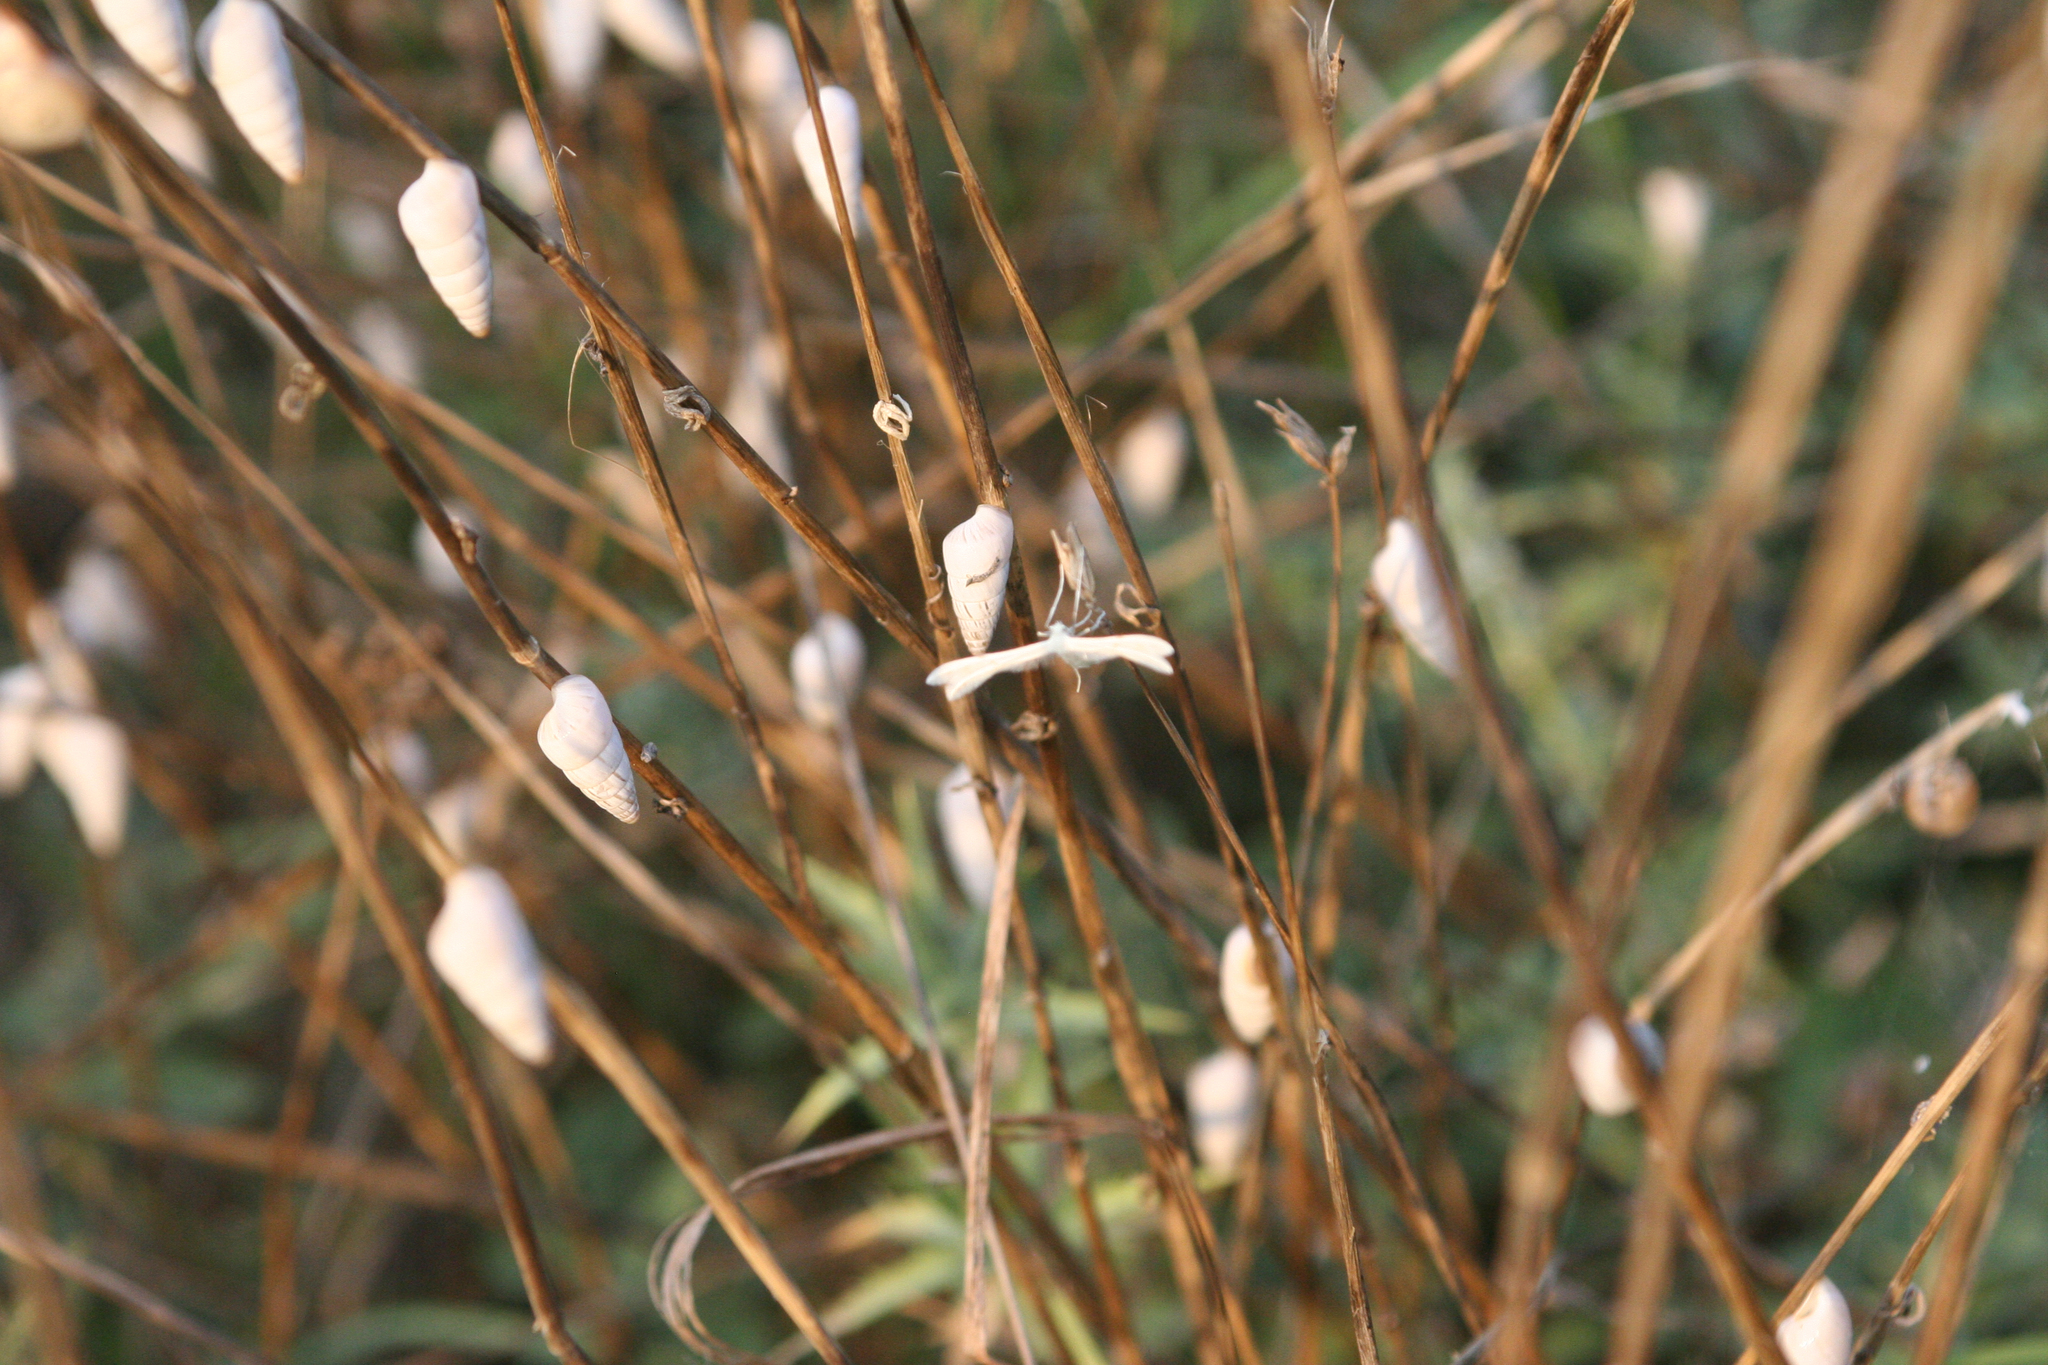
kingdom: Animalia
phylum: Mollusca
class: Gastropoda
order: Stylommatophora
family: Enidae
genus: Brephulopsis
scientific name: Brephulopsis cylindrica
